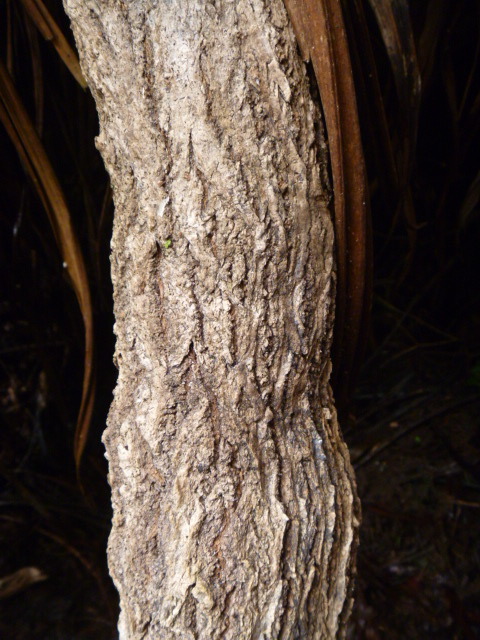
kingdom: Plantae
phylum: Tracheophyta
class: Magnoliopsida
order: Asterales
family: Asteraceae
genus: Brachyglottis
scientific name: Brachyglottis kirkii
